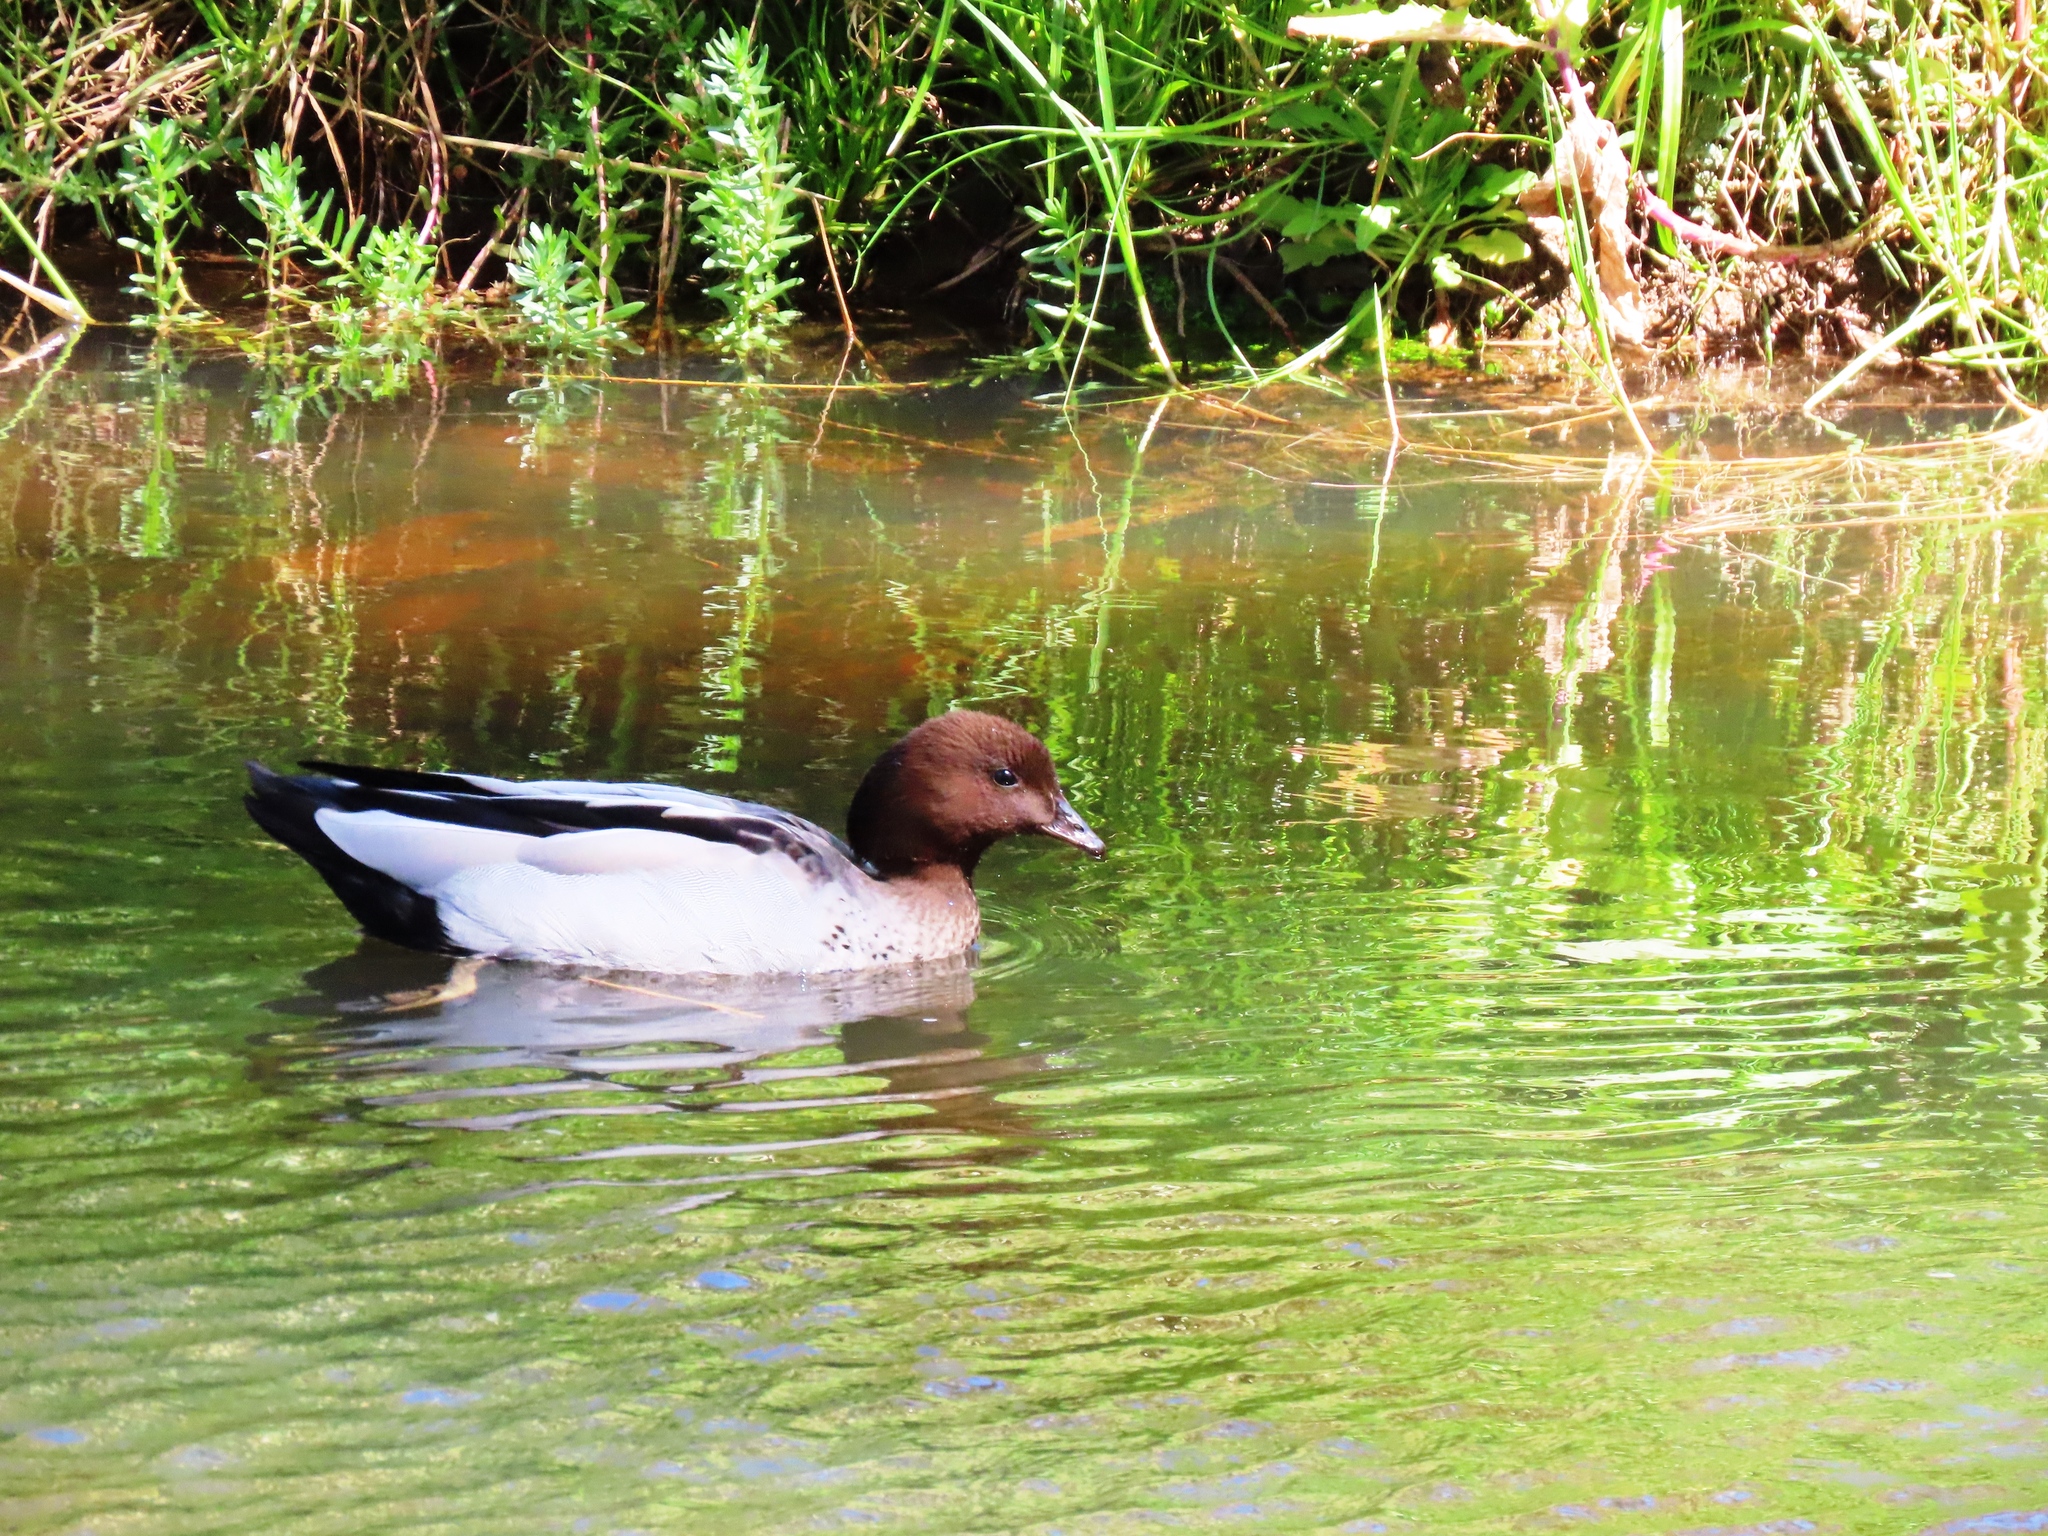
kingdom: Animalia
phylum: Chordata
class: Aves
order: Anseriformes
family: Anatidae
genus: Chenonetta
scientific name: Chenonetta jubata
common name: Maned duck
